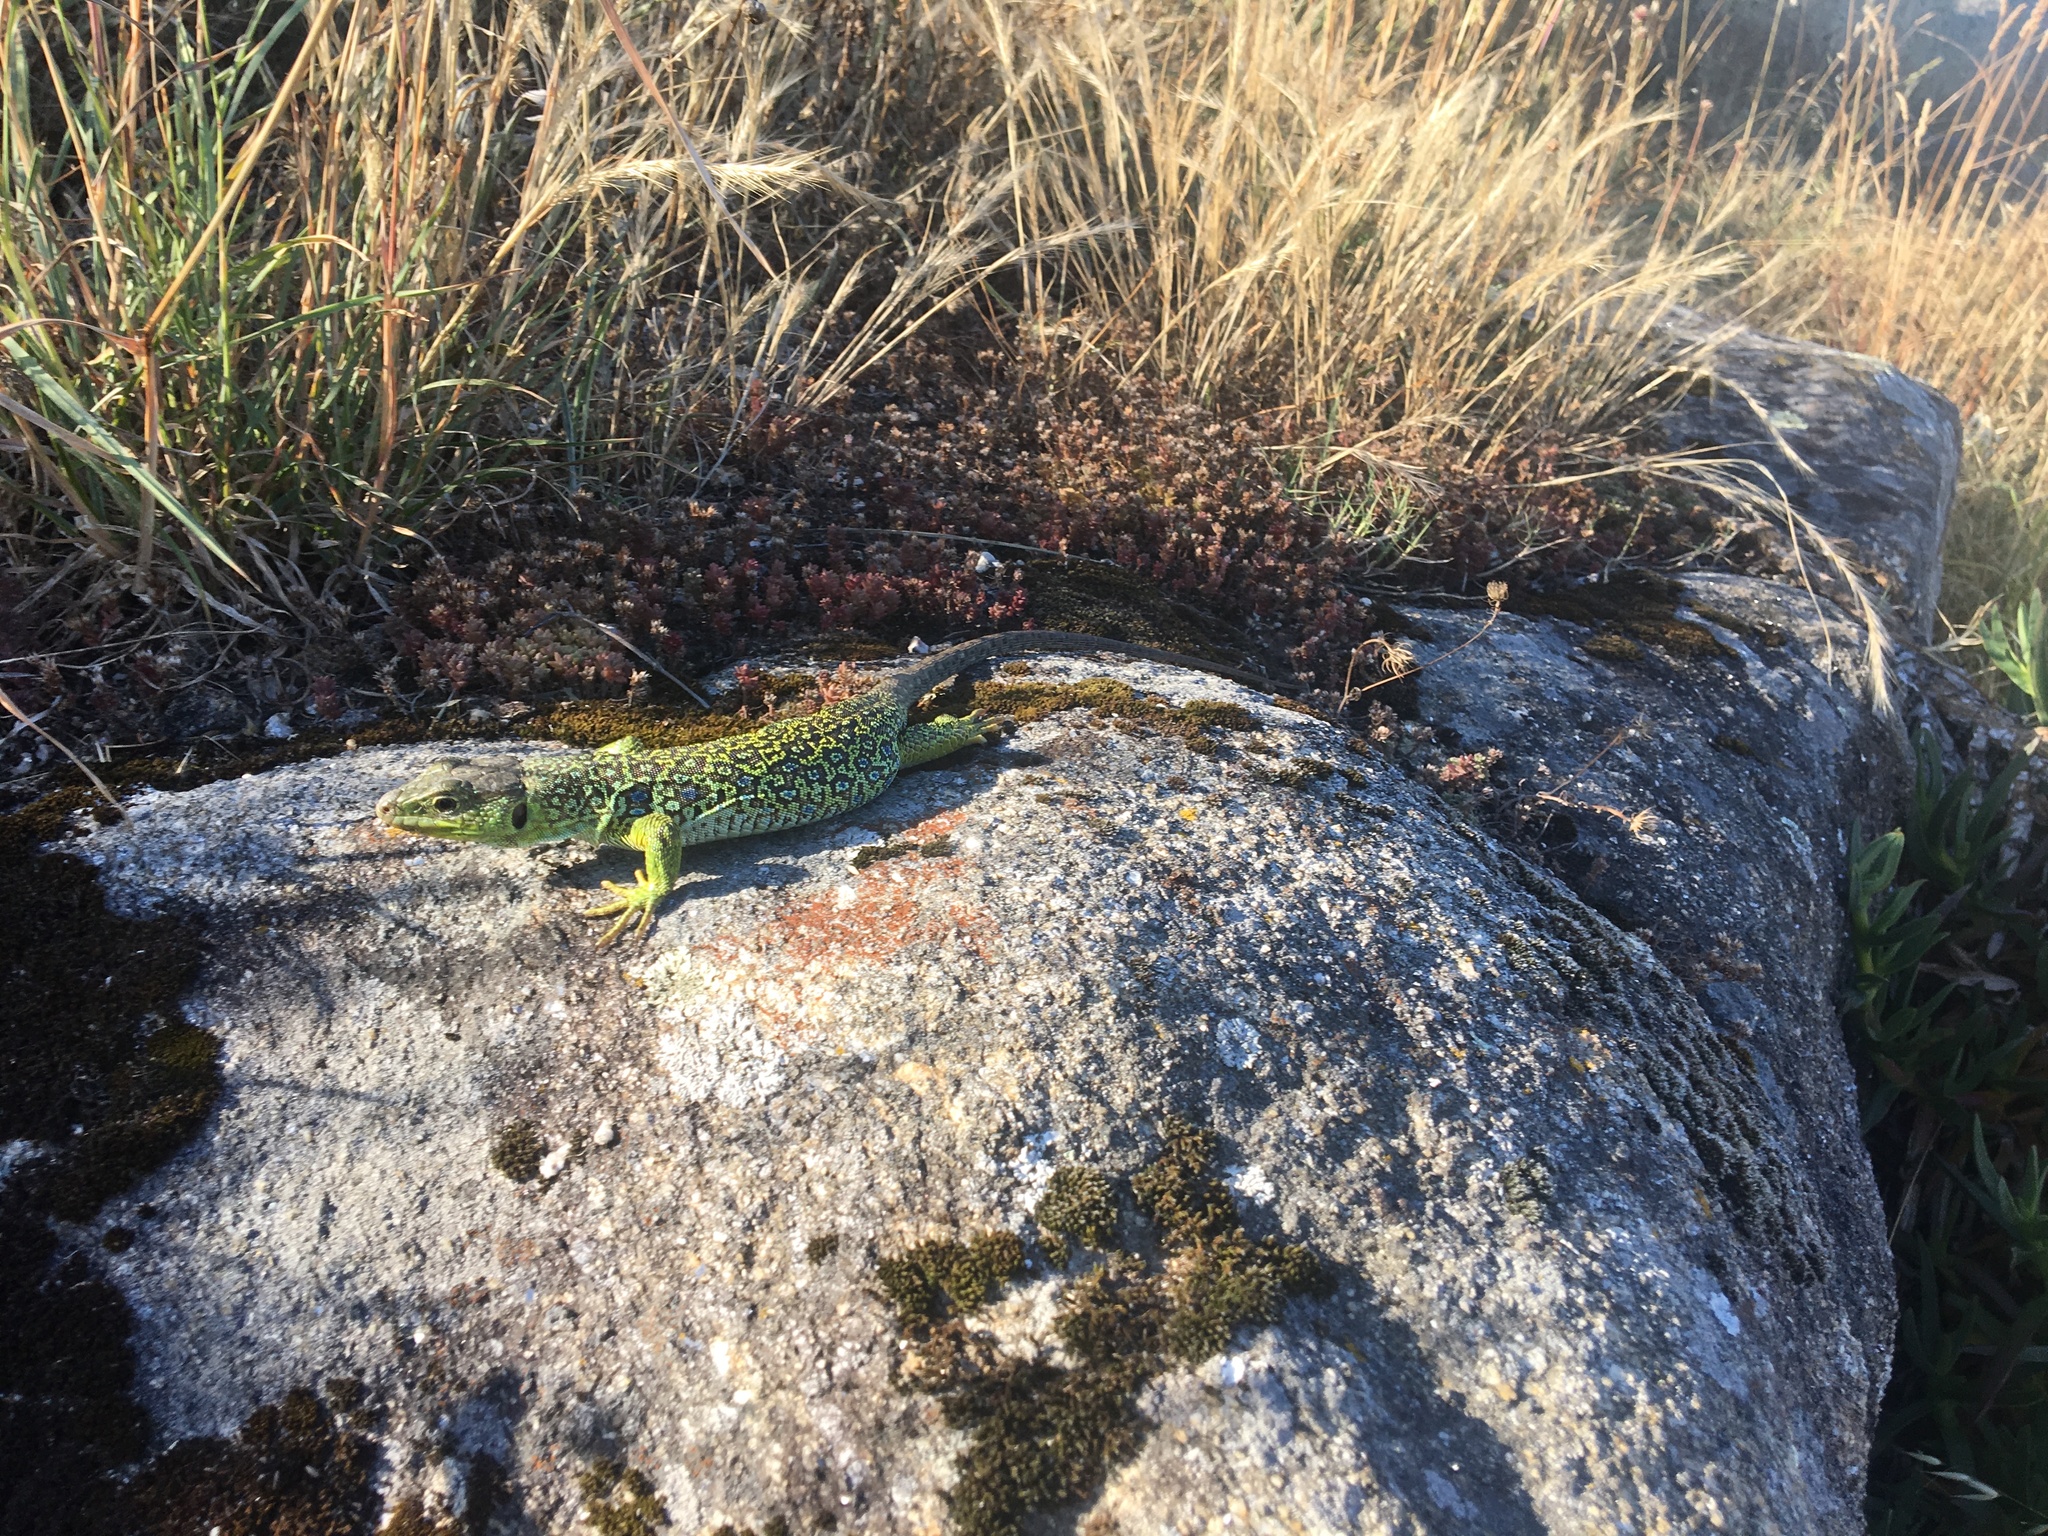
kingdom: Animalia
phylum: Chordata
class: Squamata
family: Lacertidae
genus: Timon
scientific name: Timon lepidus
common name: Ocellated lizard
